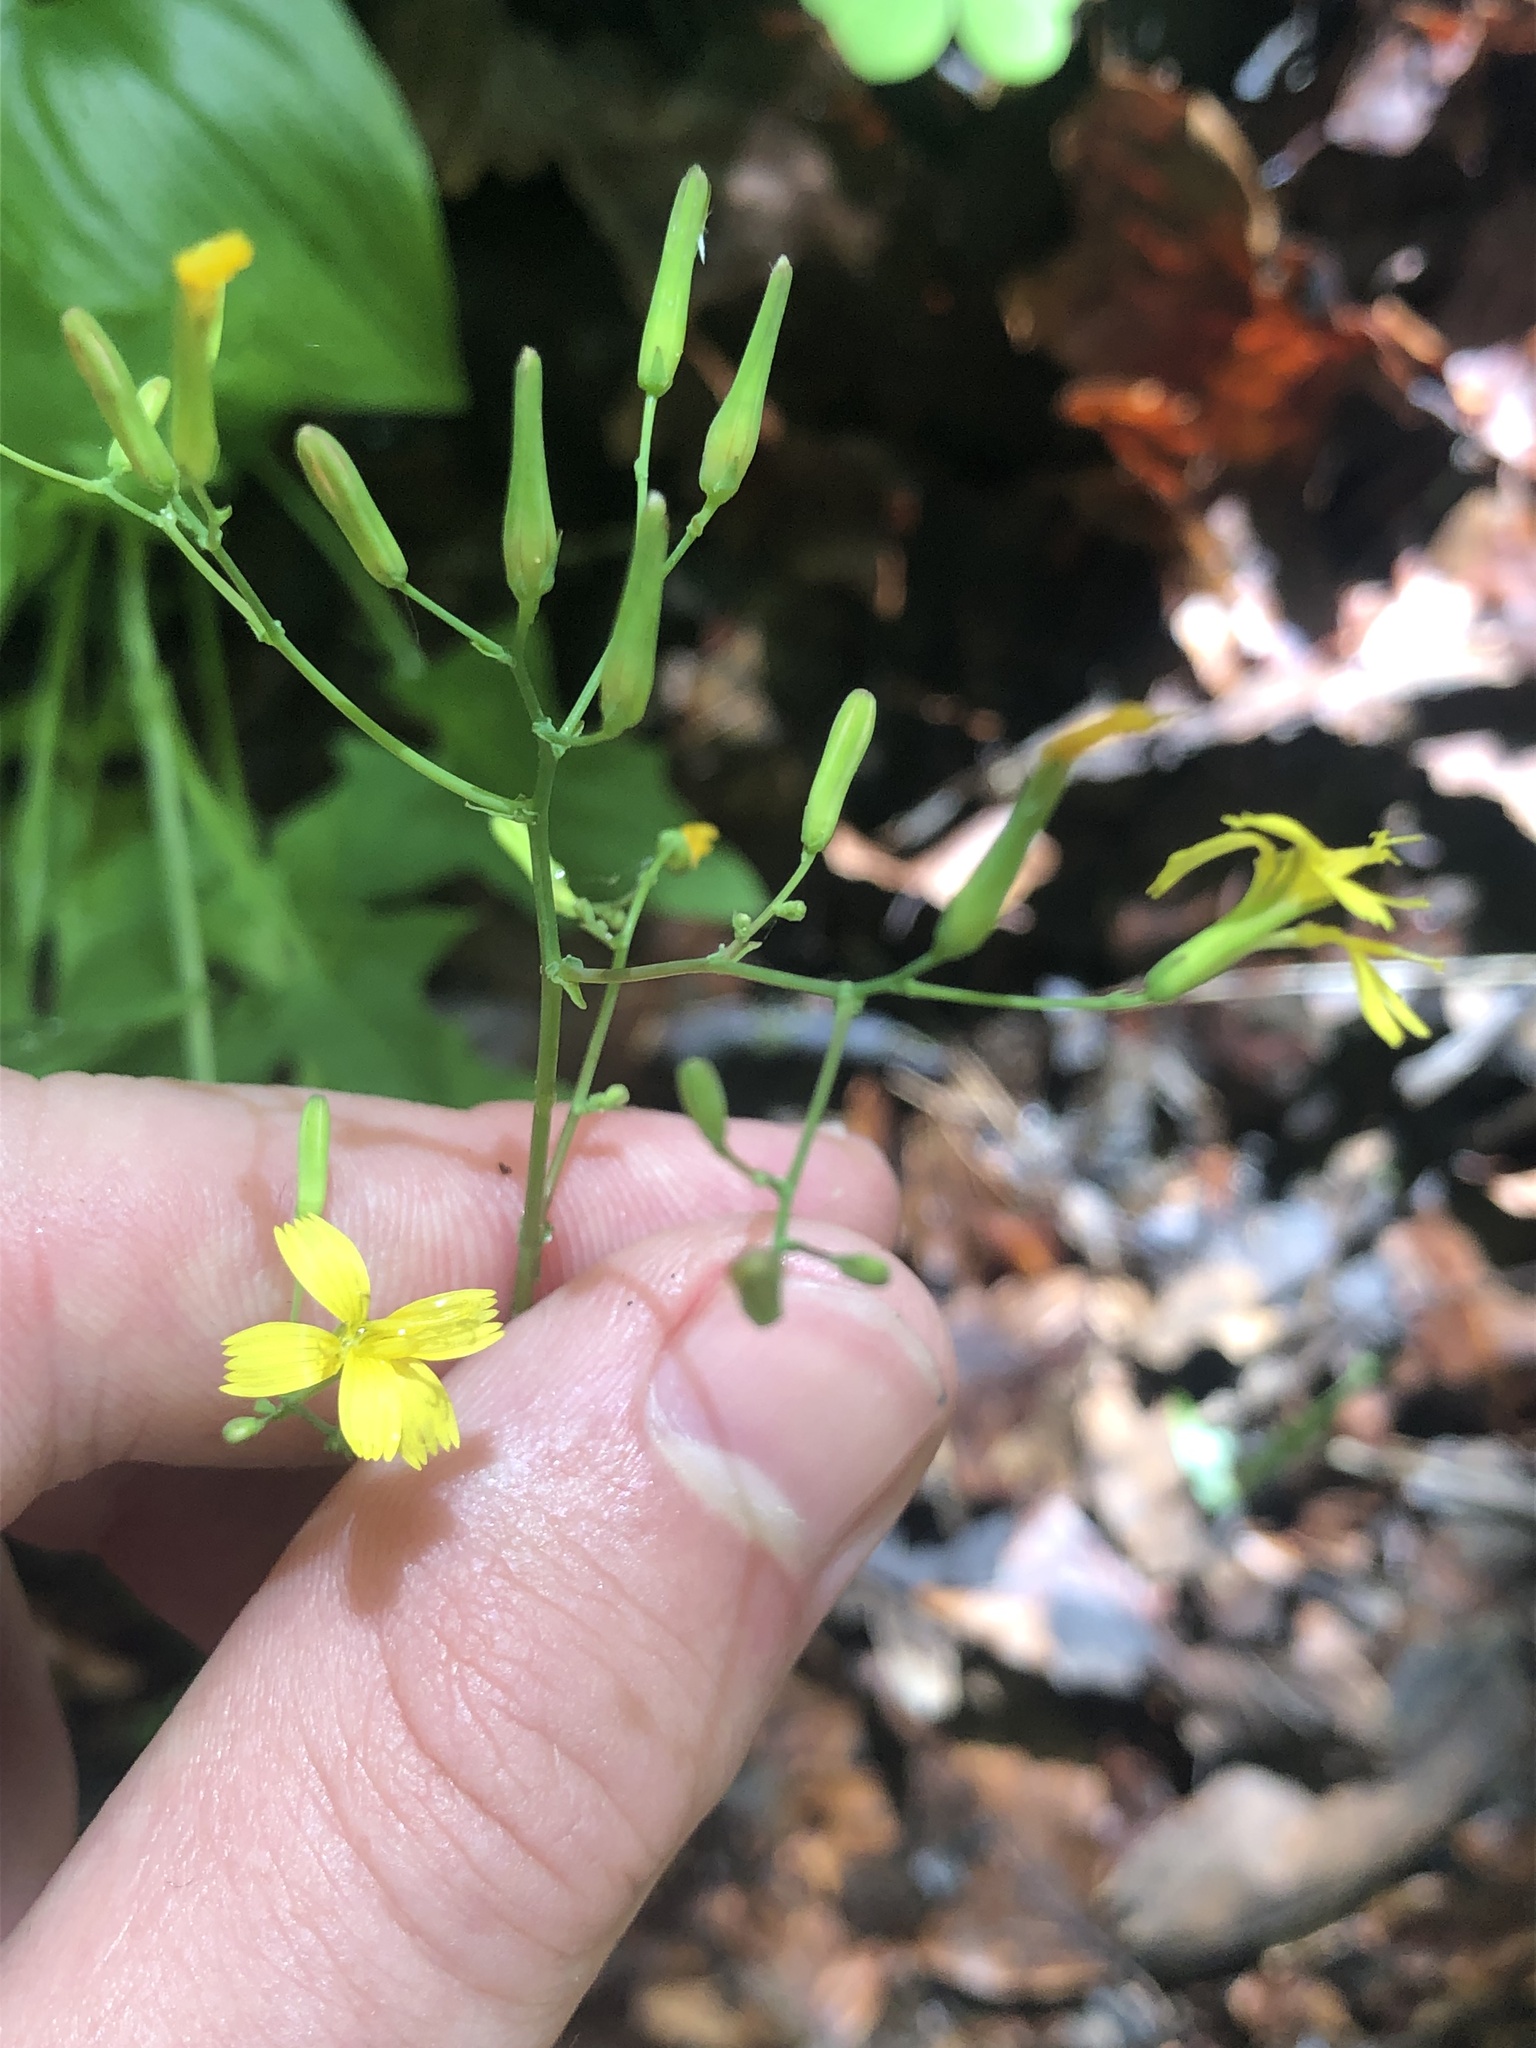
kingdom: Plantae
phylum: Tracheophyta
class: Magnoliopsida
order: Asterales
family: Asteraceae
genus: Mycelis
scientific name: Mycelis muralis
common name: Wall lettuce
